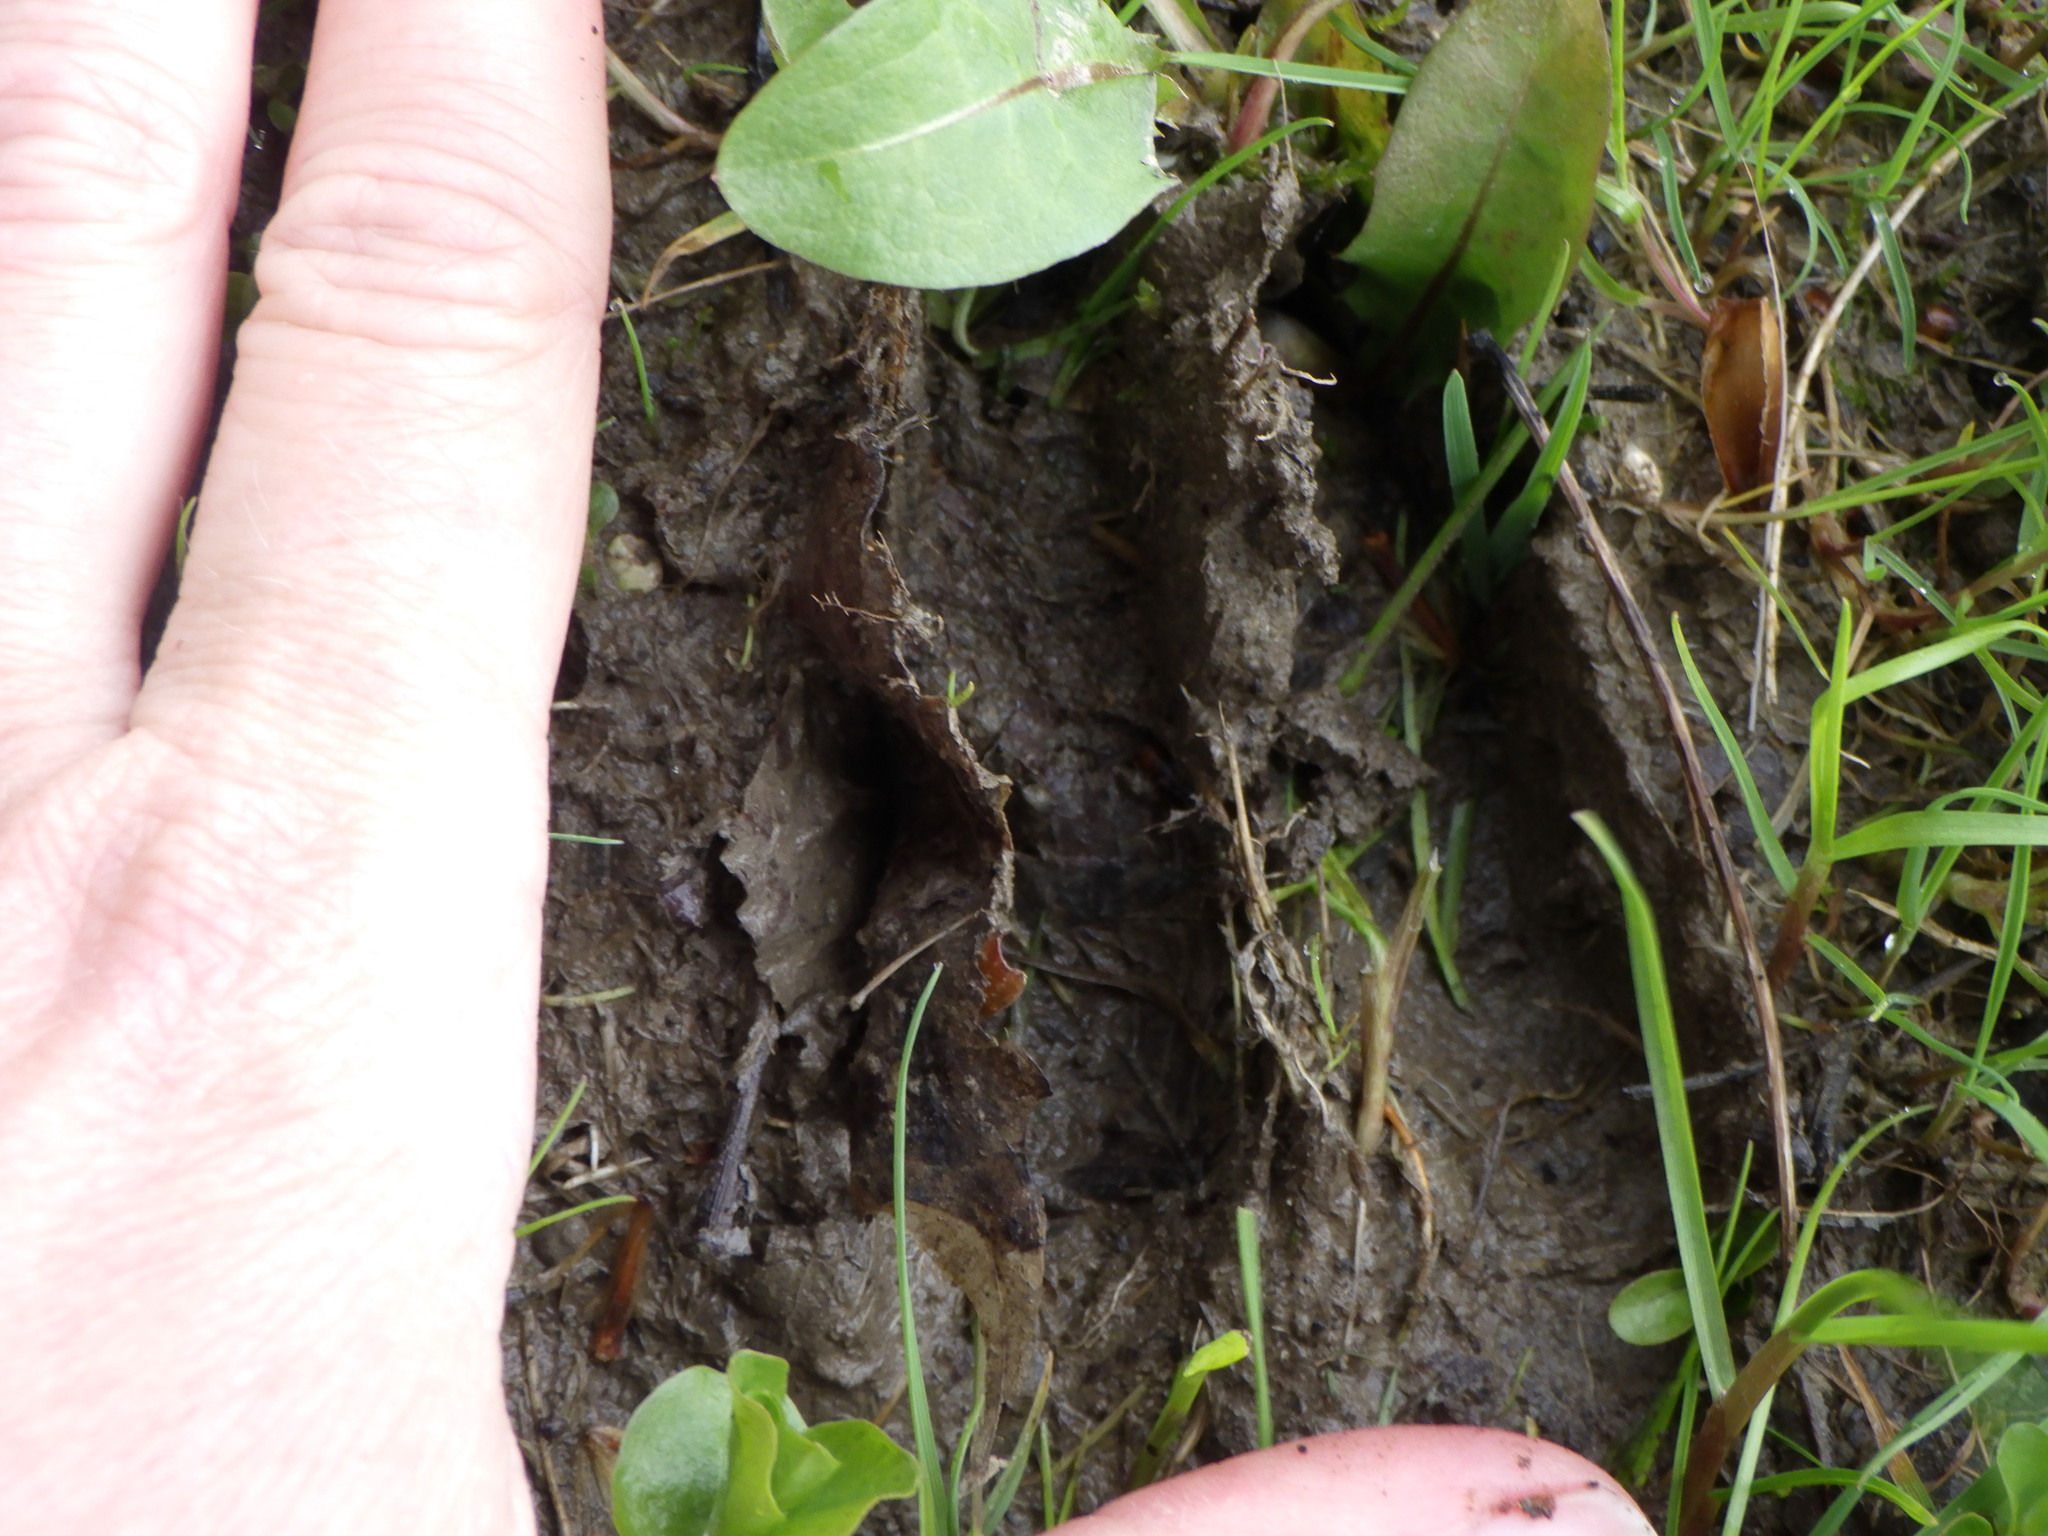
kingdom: Animalia
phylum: Chordata
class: Mammalia
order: Artiodactyla
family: Cervidae
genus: Odocoileus
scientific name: Odocoileus virginianus
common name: White-tailed deer
